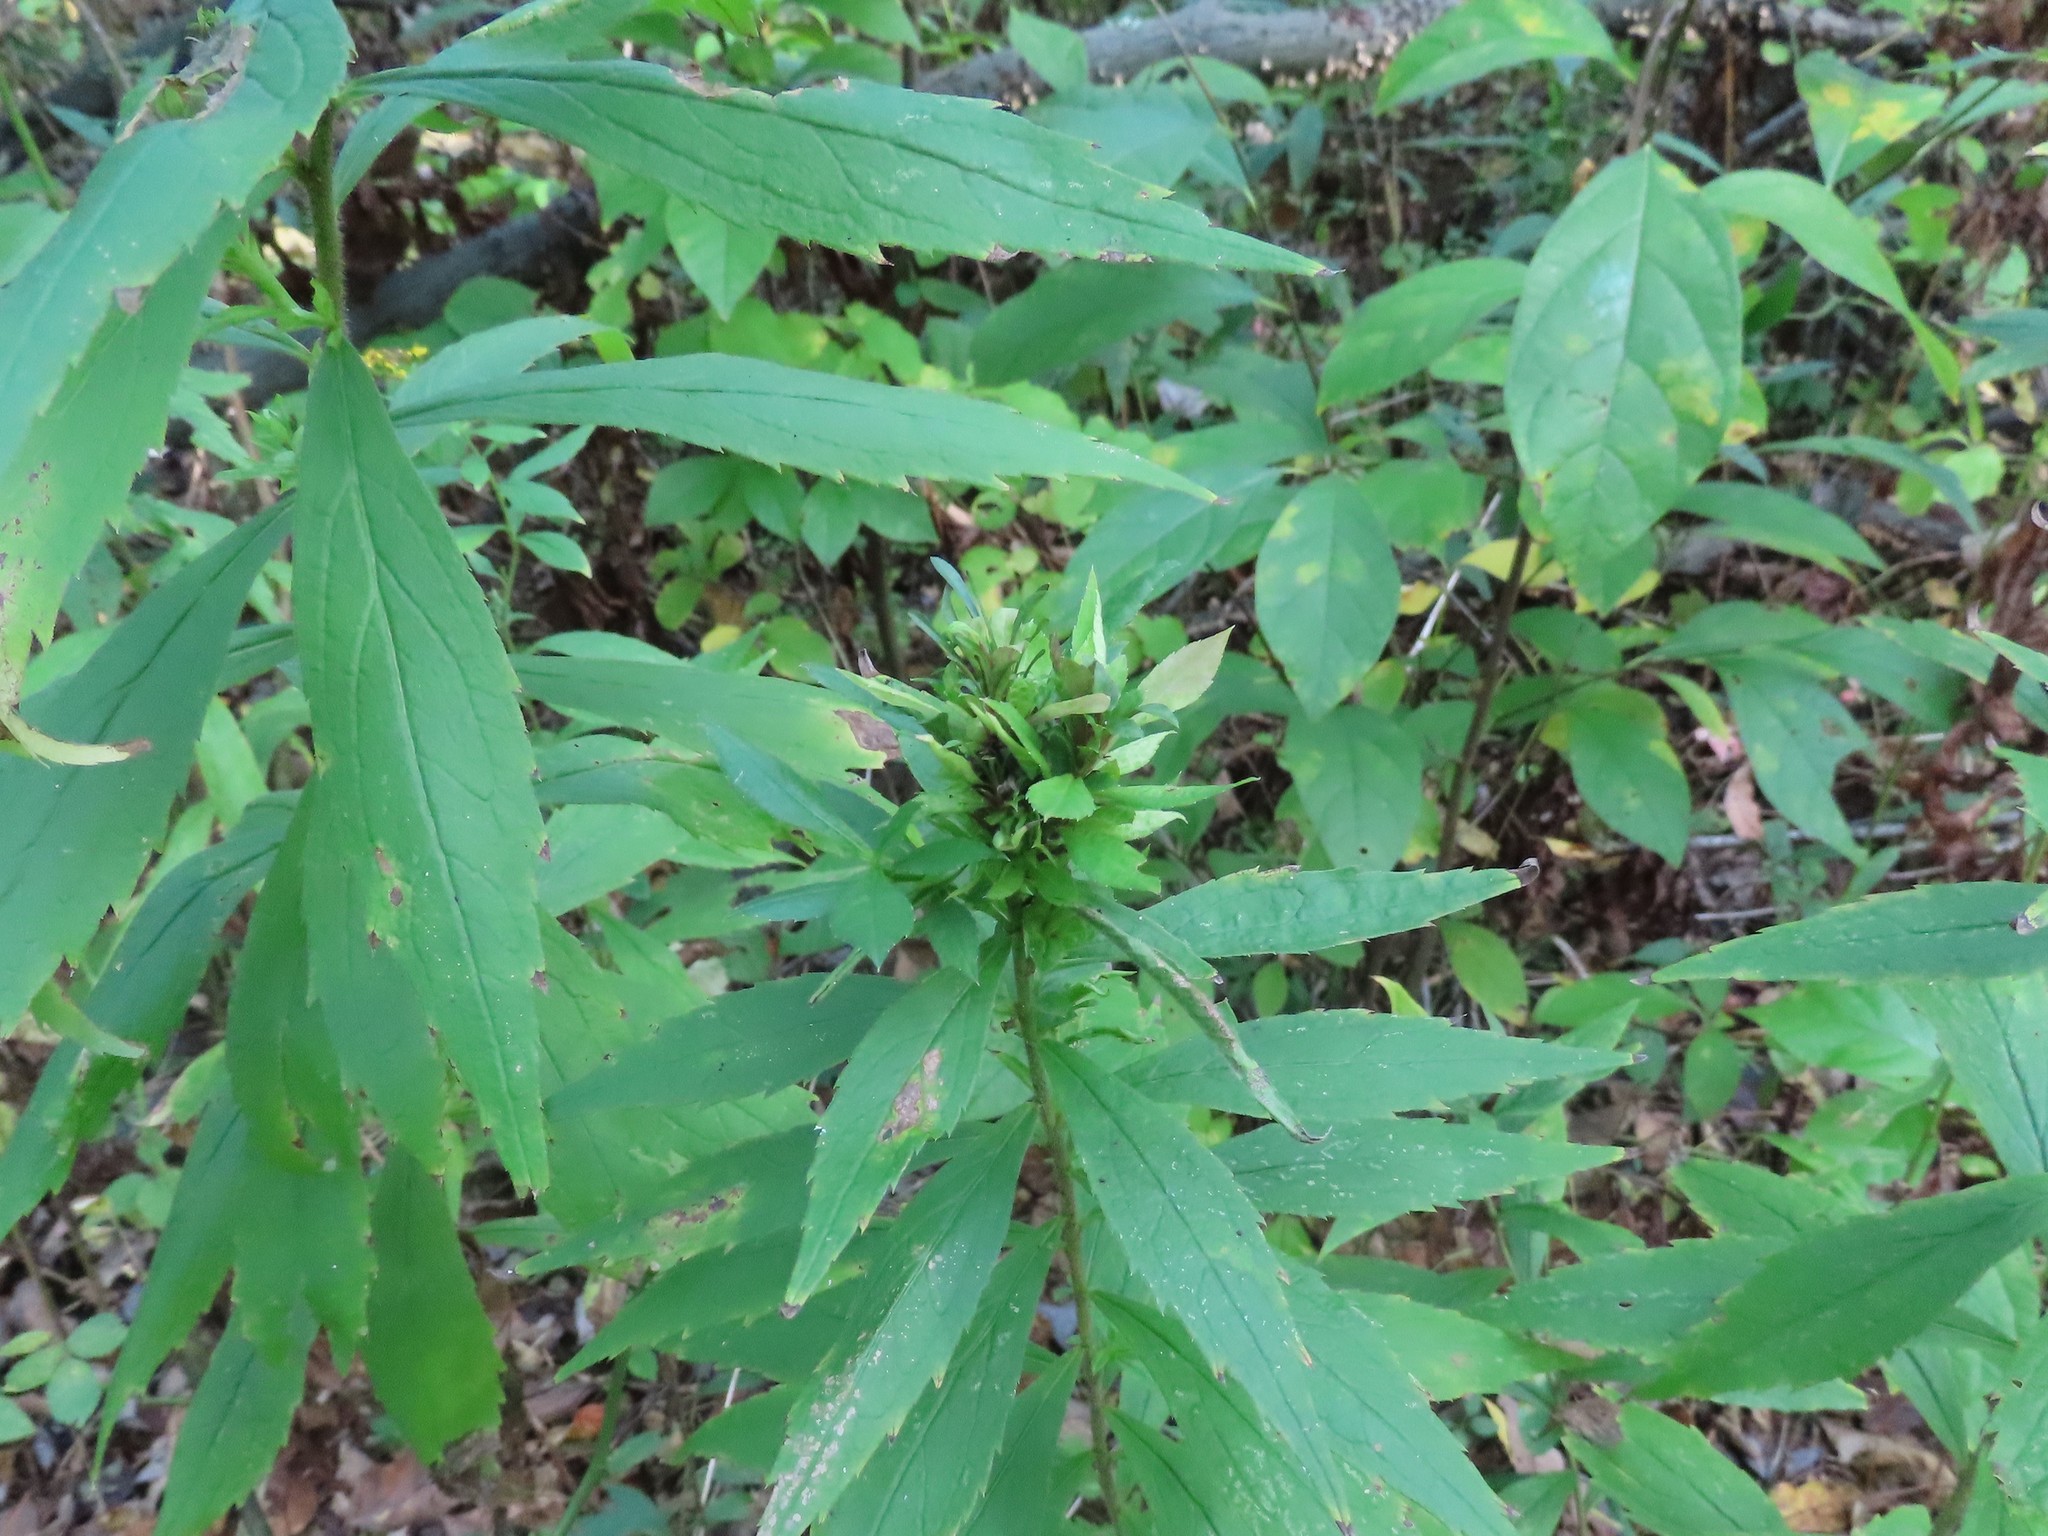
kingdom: Animalia
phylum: Arthropoda
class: Insecta
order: Diptera
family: Cecidomyiidae
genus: Dasineura
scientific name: Dasineura folliculi
